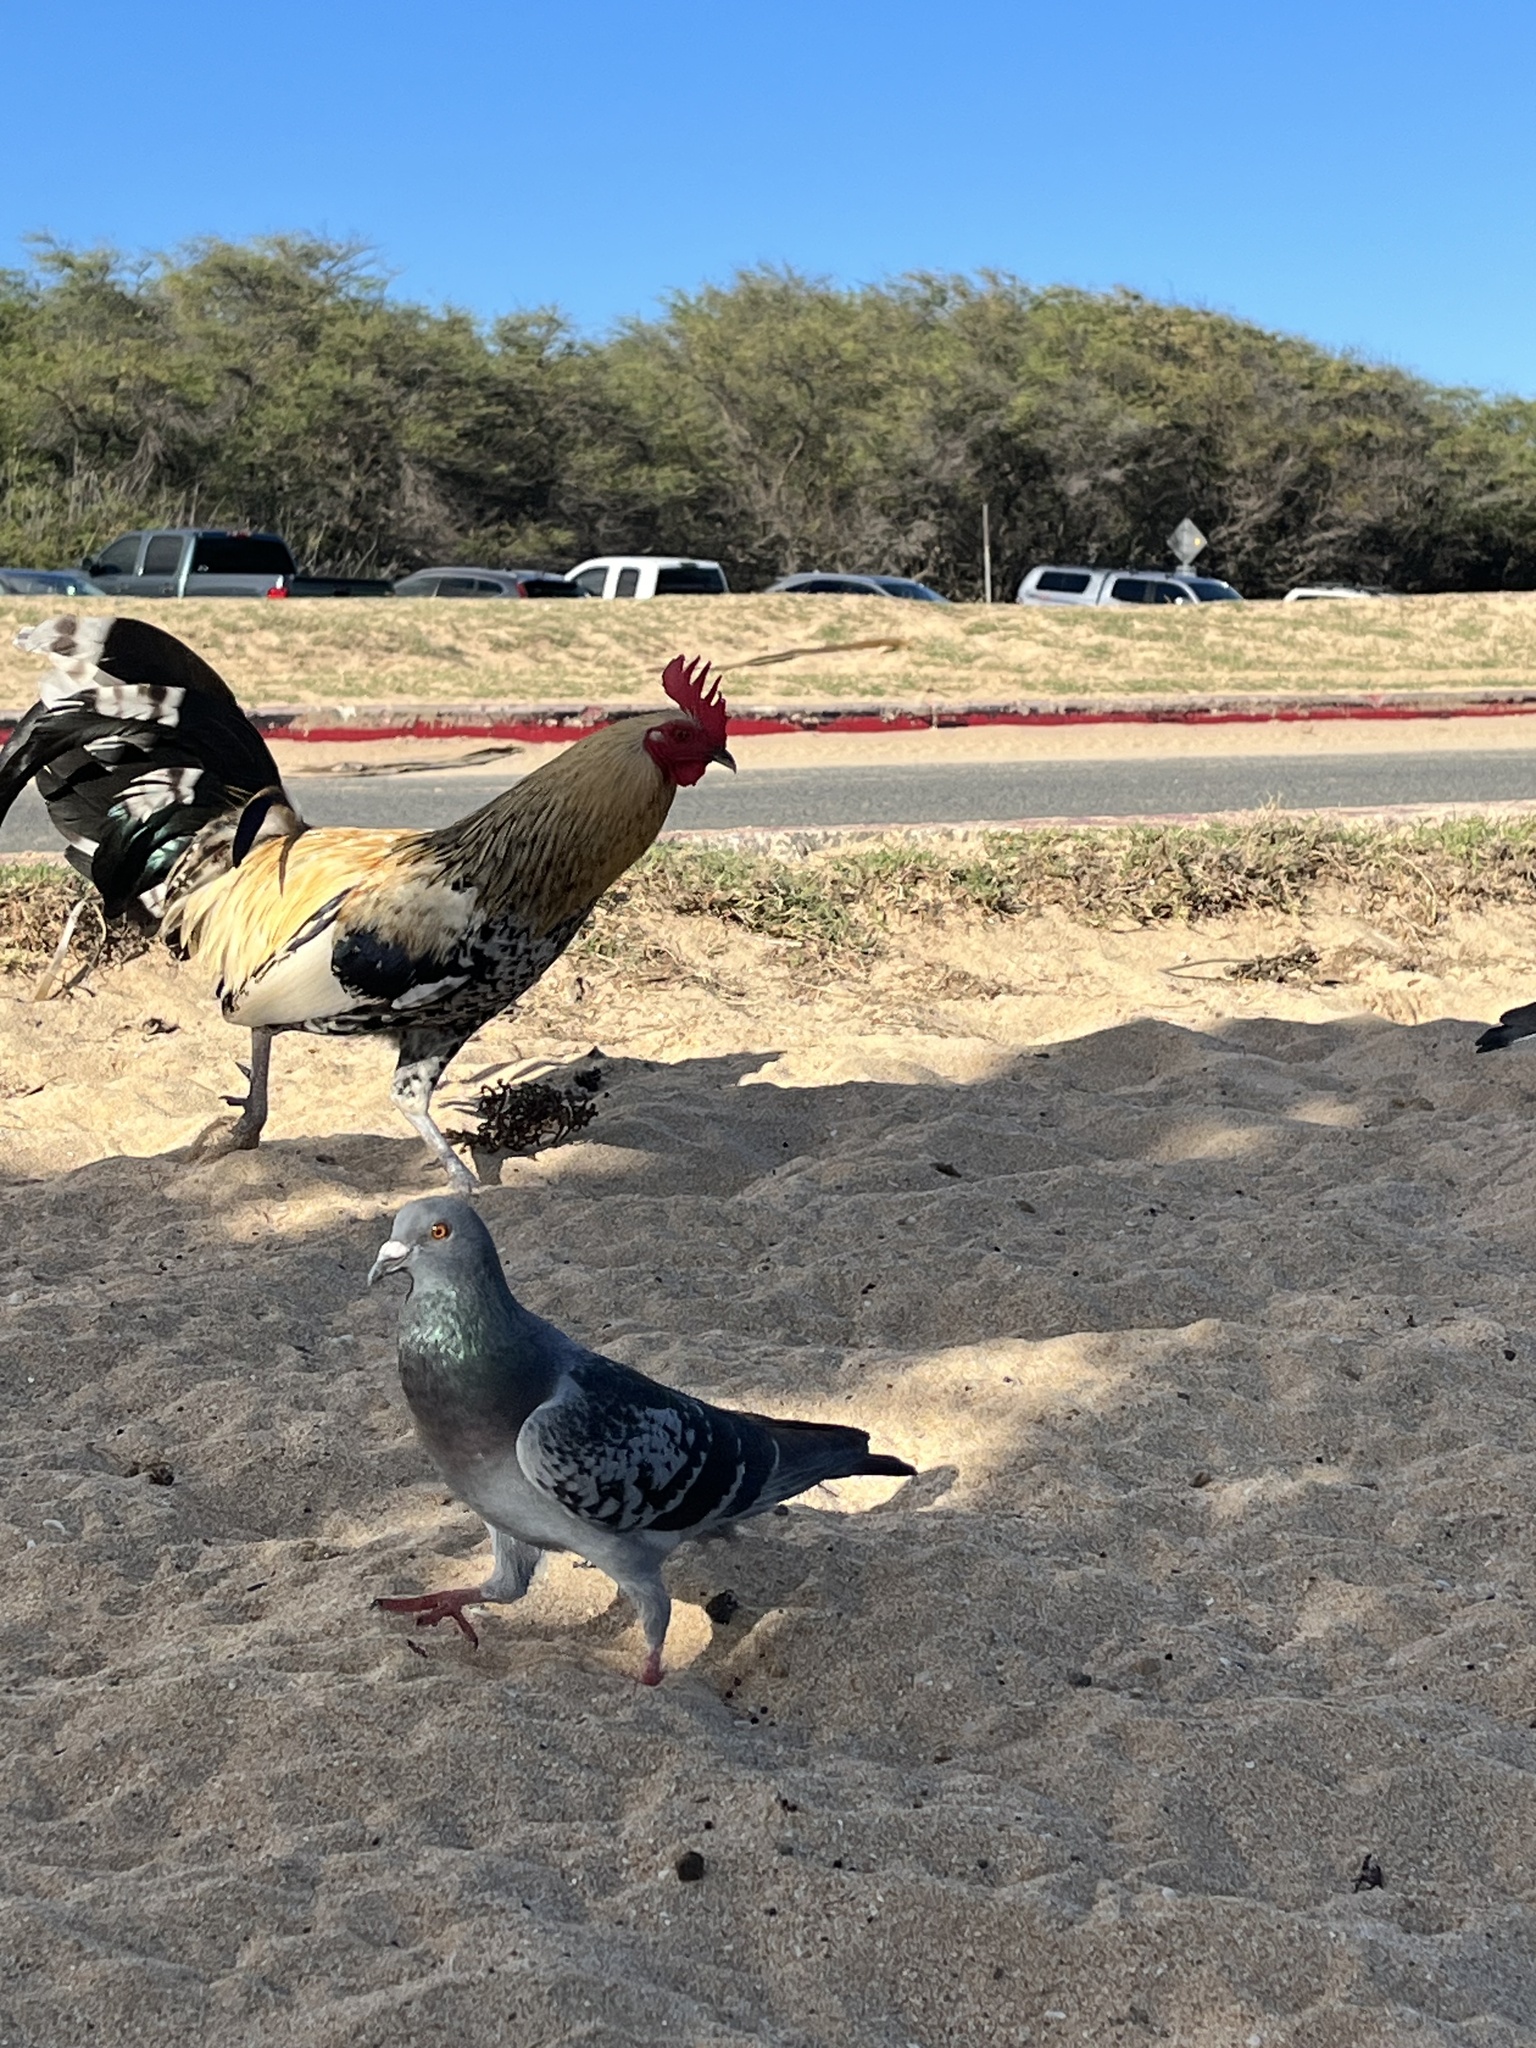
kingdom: Animalia
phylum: Chordata
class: Aves
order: Galliformes
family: Phasianidae
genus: Gallus
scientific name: Gallus gallus
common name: Red junglefowl
